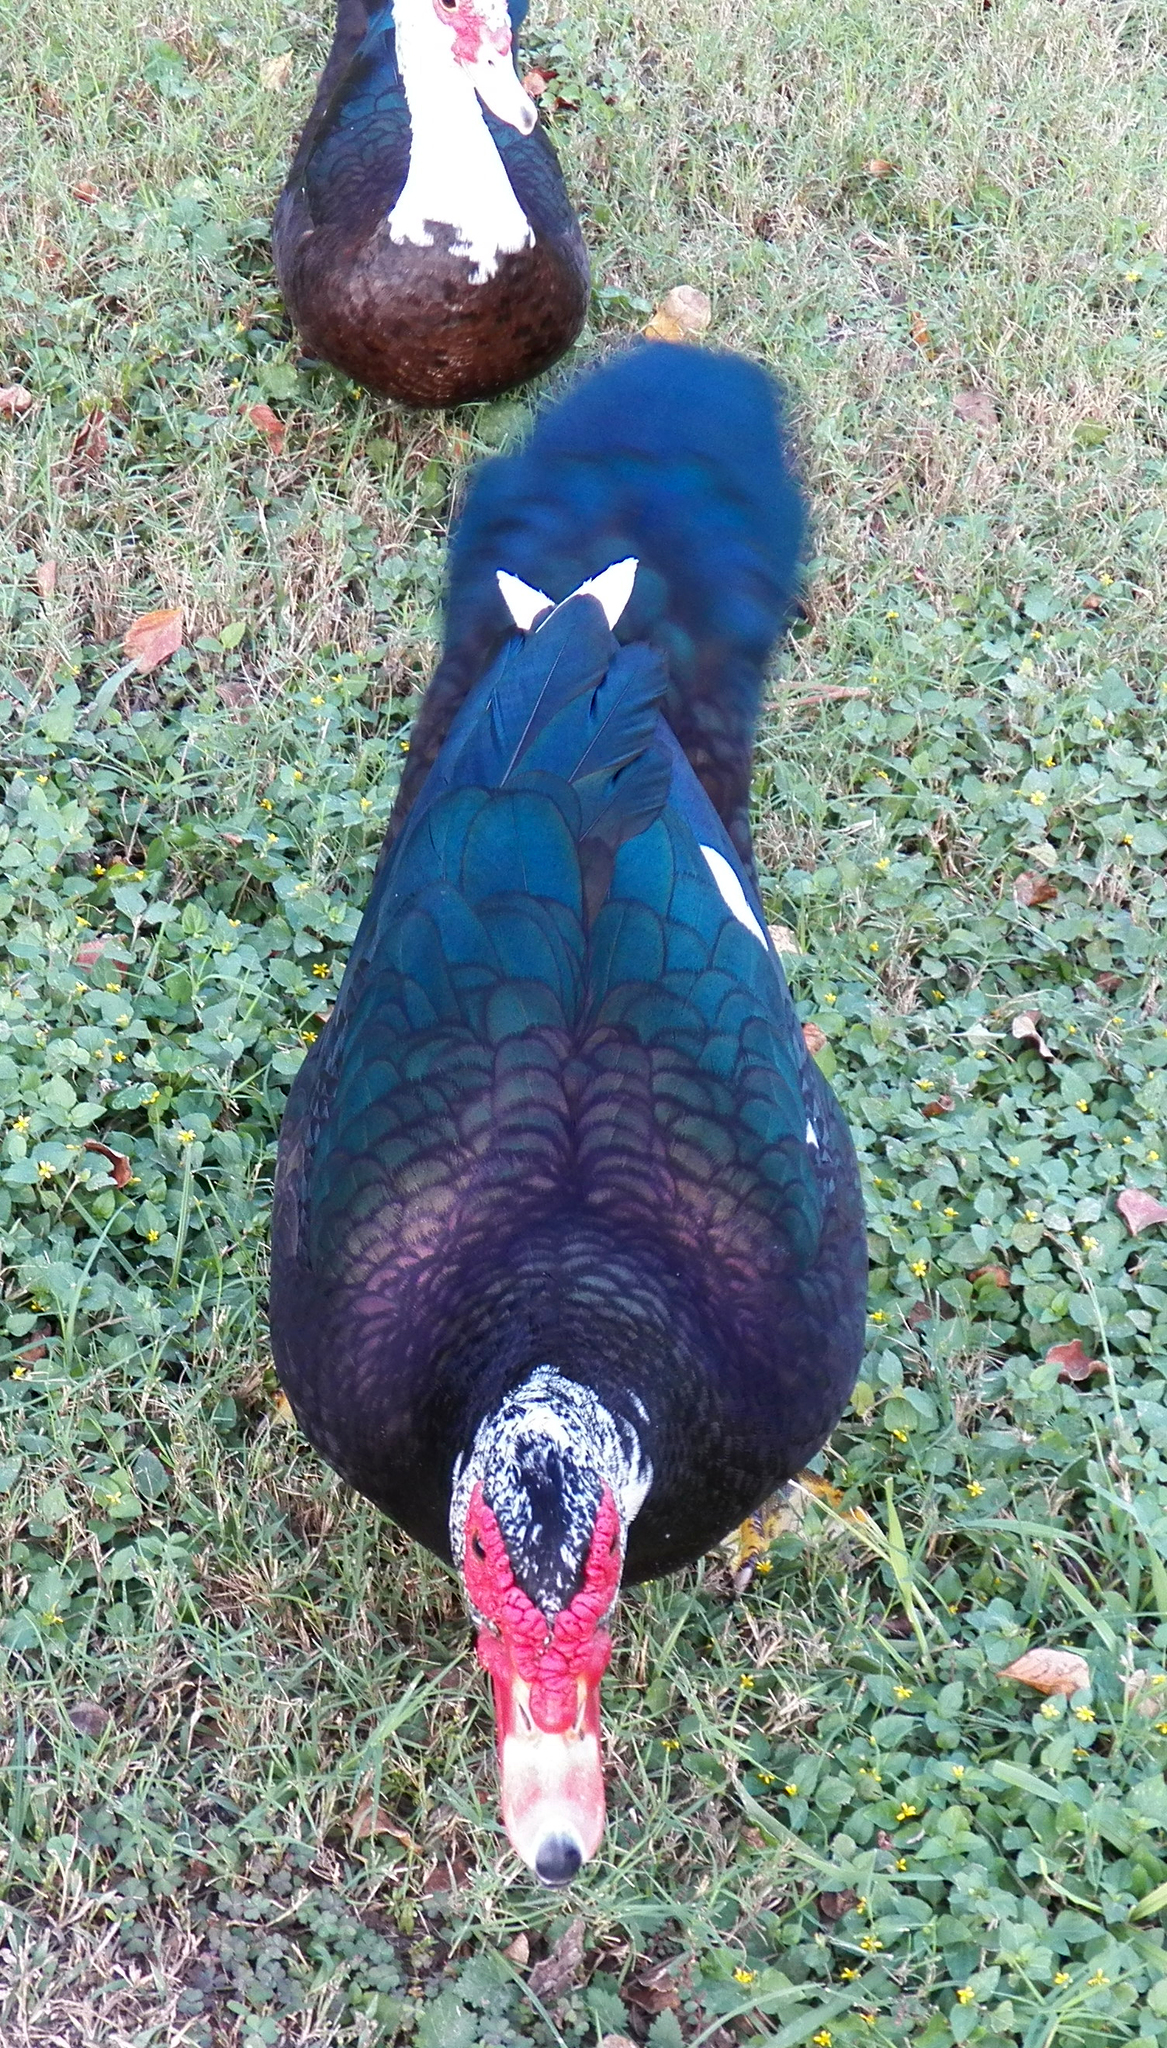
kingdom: Animalia
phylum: Chordata
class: Aves
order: Anseriformes
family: Anatidae
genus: Cairina
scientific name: Cairina moschata
